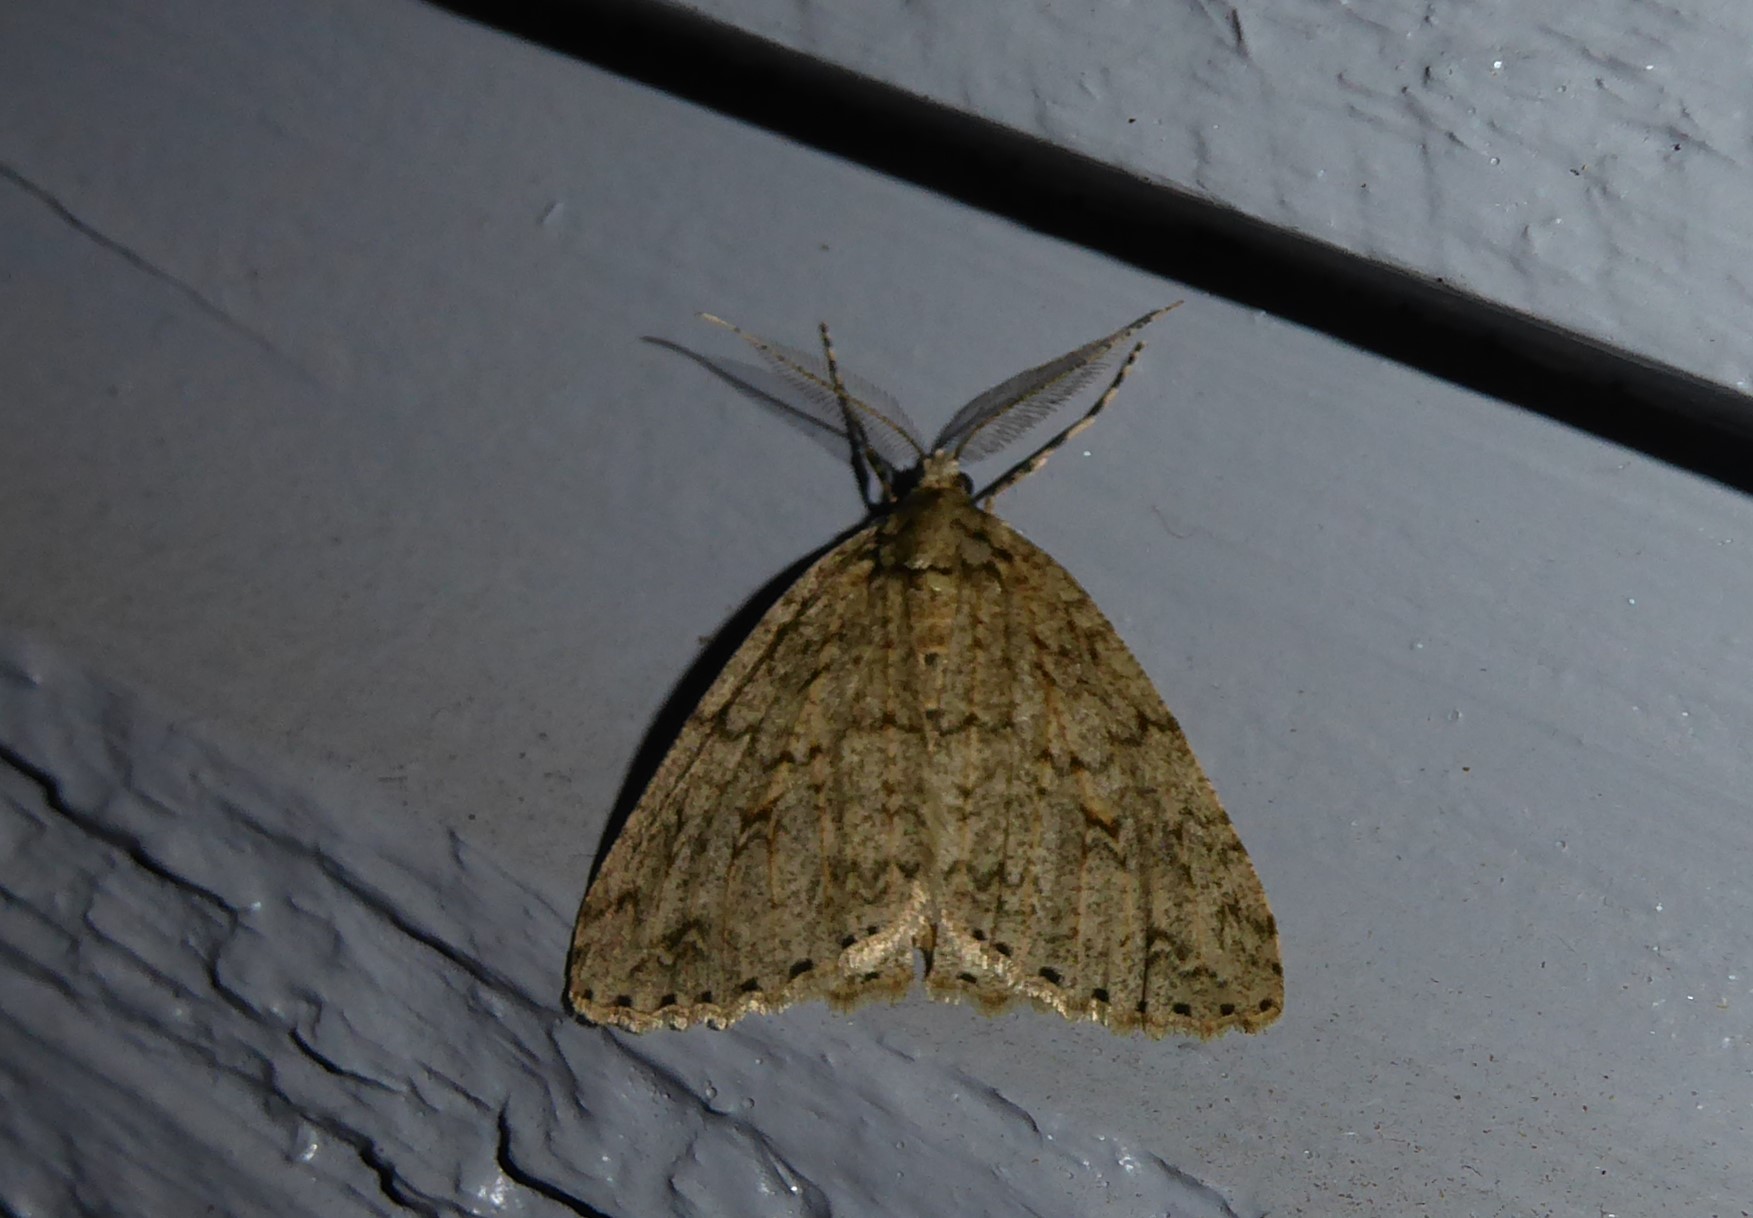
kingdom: Animalia
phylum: Arthropoda
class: Insecta
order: Lepidoptera
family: Geometridae
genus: Pseudocoremia
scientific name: Pseudocoremia rudisata
